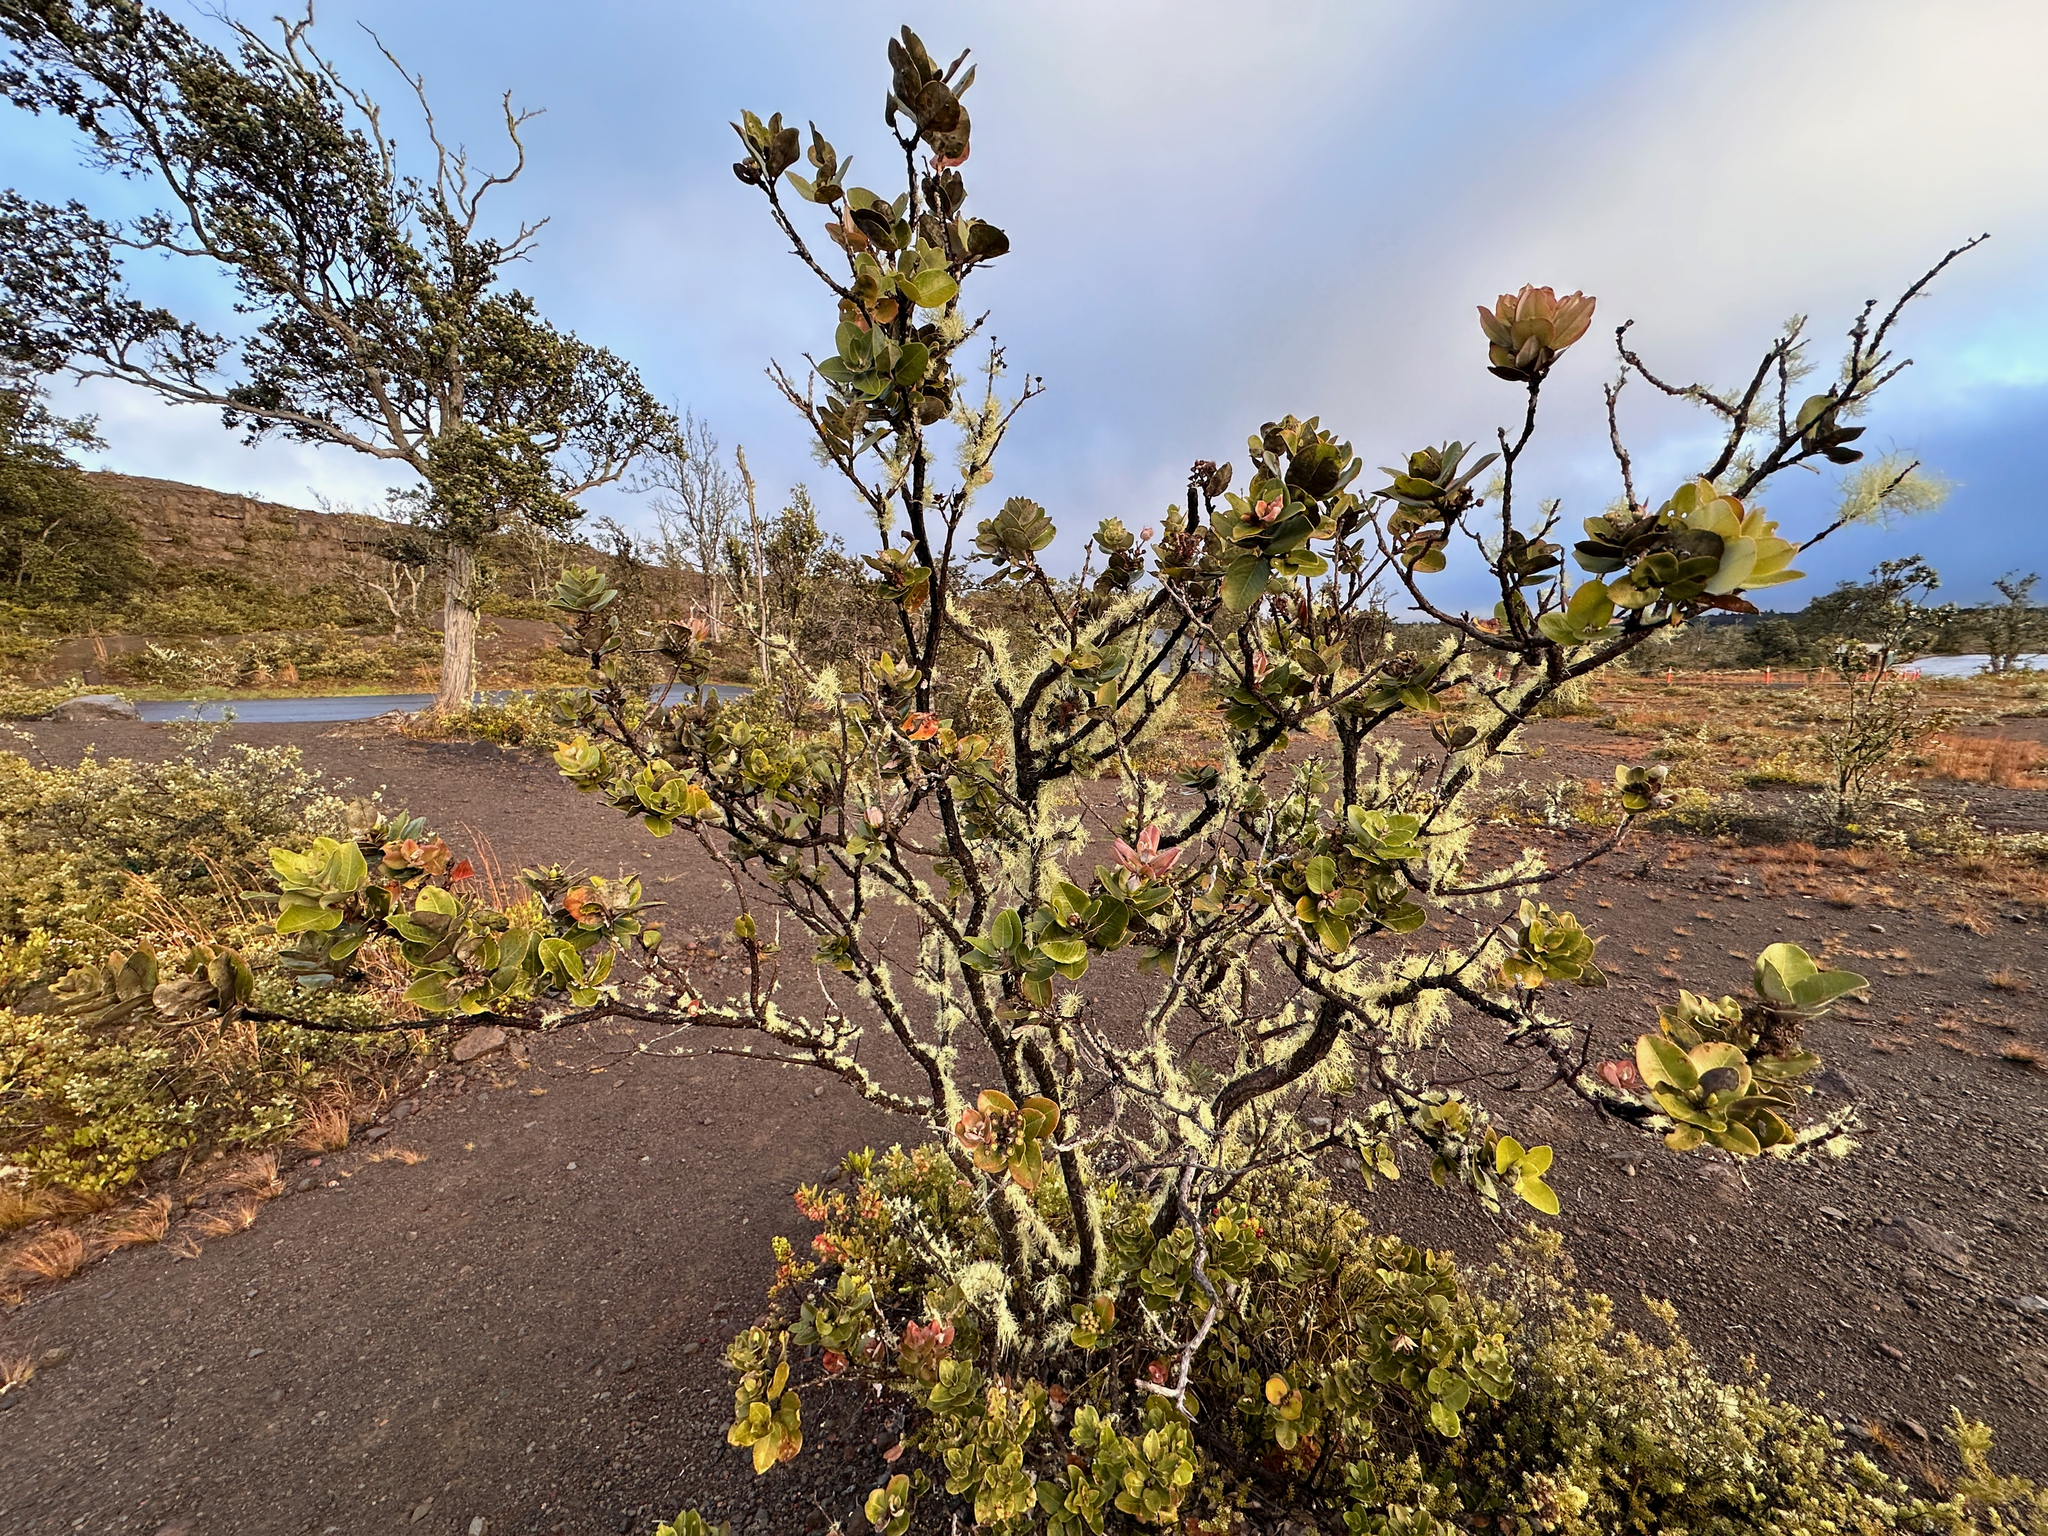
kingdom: Plantae
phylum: Tracheophyta
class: Magnoliopsida
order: Myrtales
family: Myrtaceae
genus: Metrosideros
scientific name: Metrosideros polymorpha
